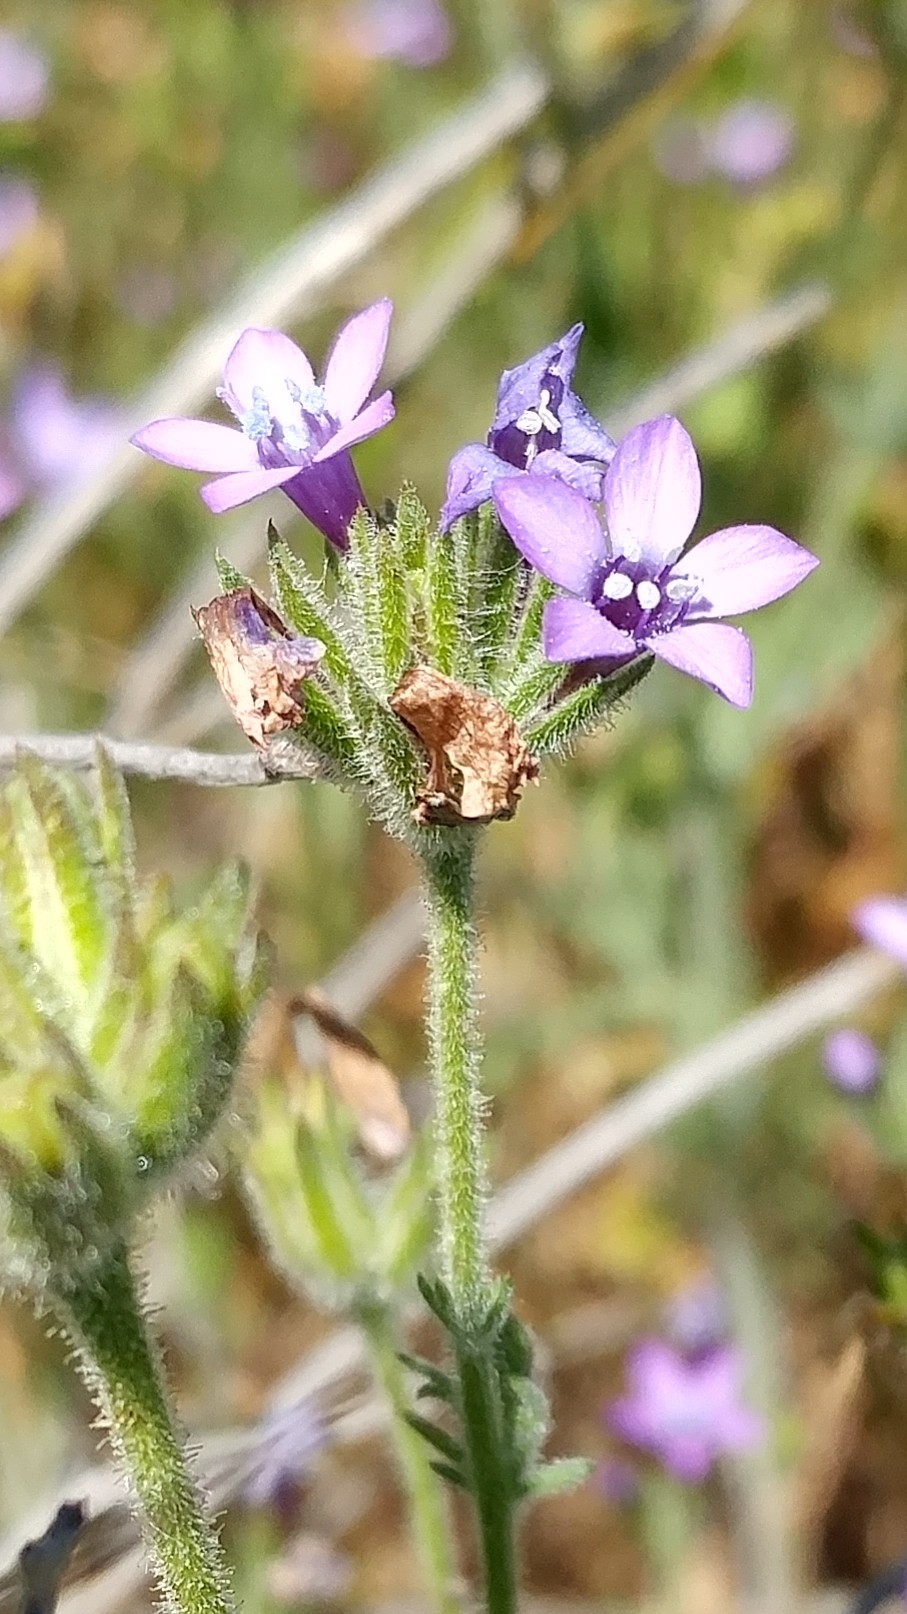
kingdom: Plantae
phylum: Tracheophyta
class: Magnoliopsida
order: Ericales
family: Polemoniaceae
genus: Gilia
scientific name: Gilia nevinii
